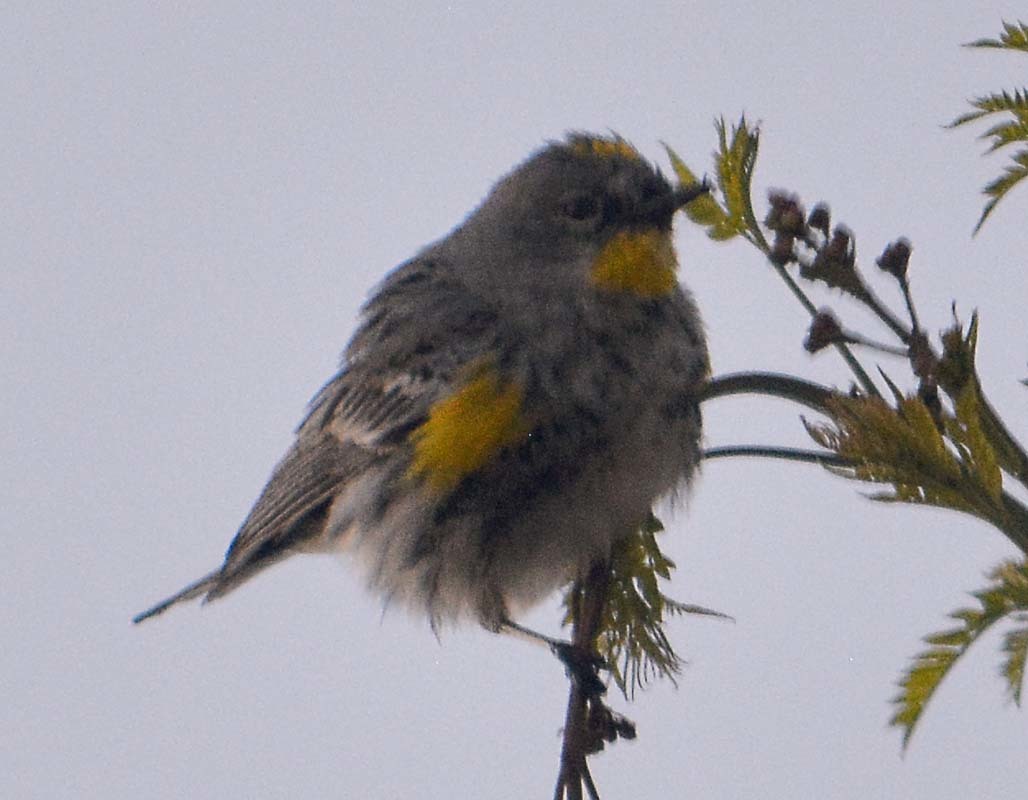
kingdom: Animalia
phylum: Chordata
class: Aves
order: Passeriformes
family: Parulidae
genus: Setophaga
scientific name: Setophaga coronata
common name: Myrtle warbler
